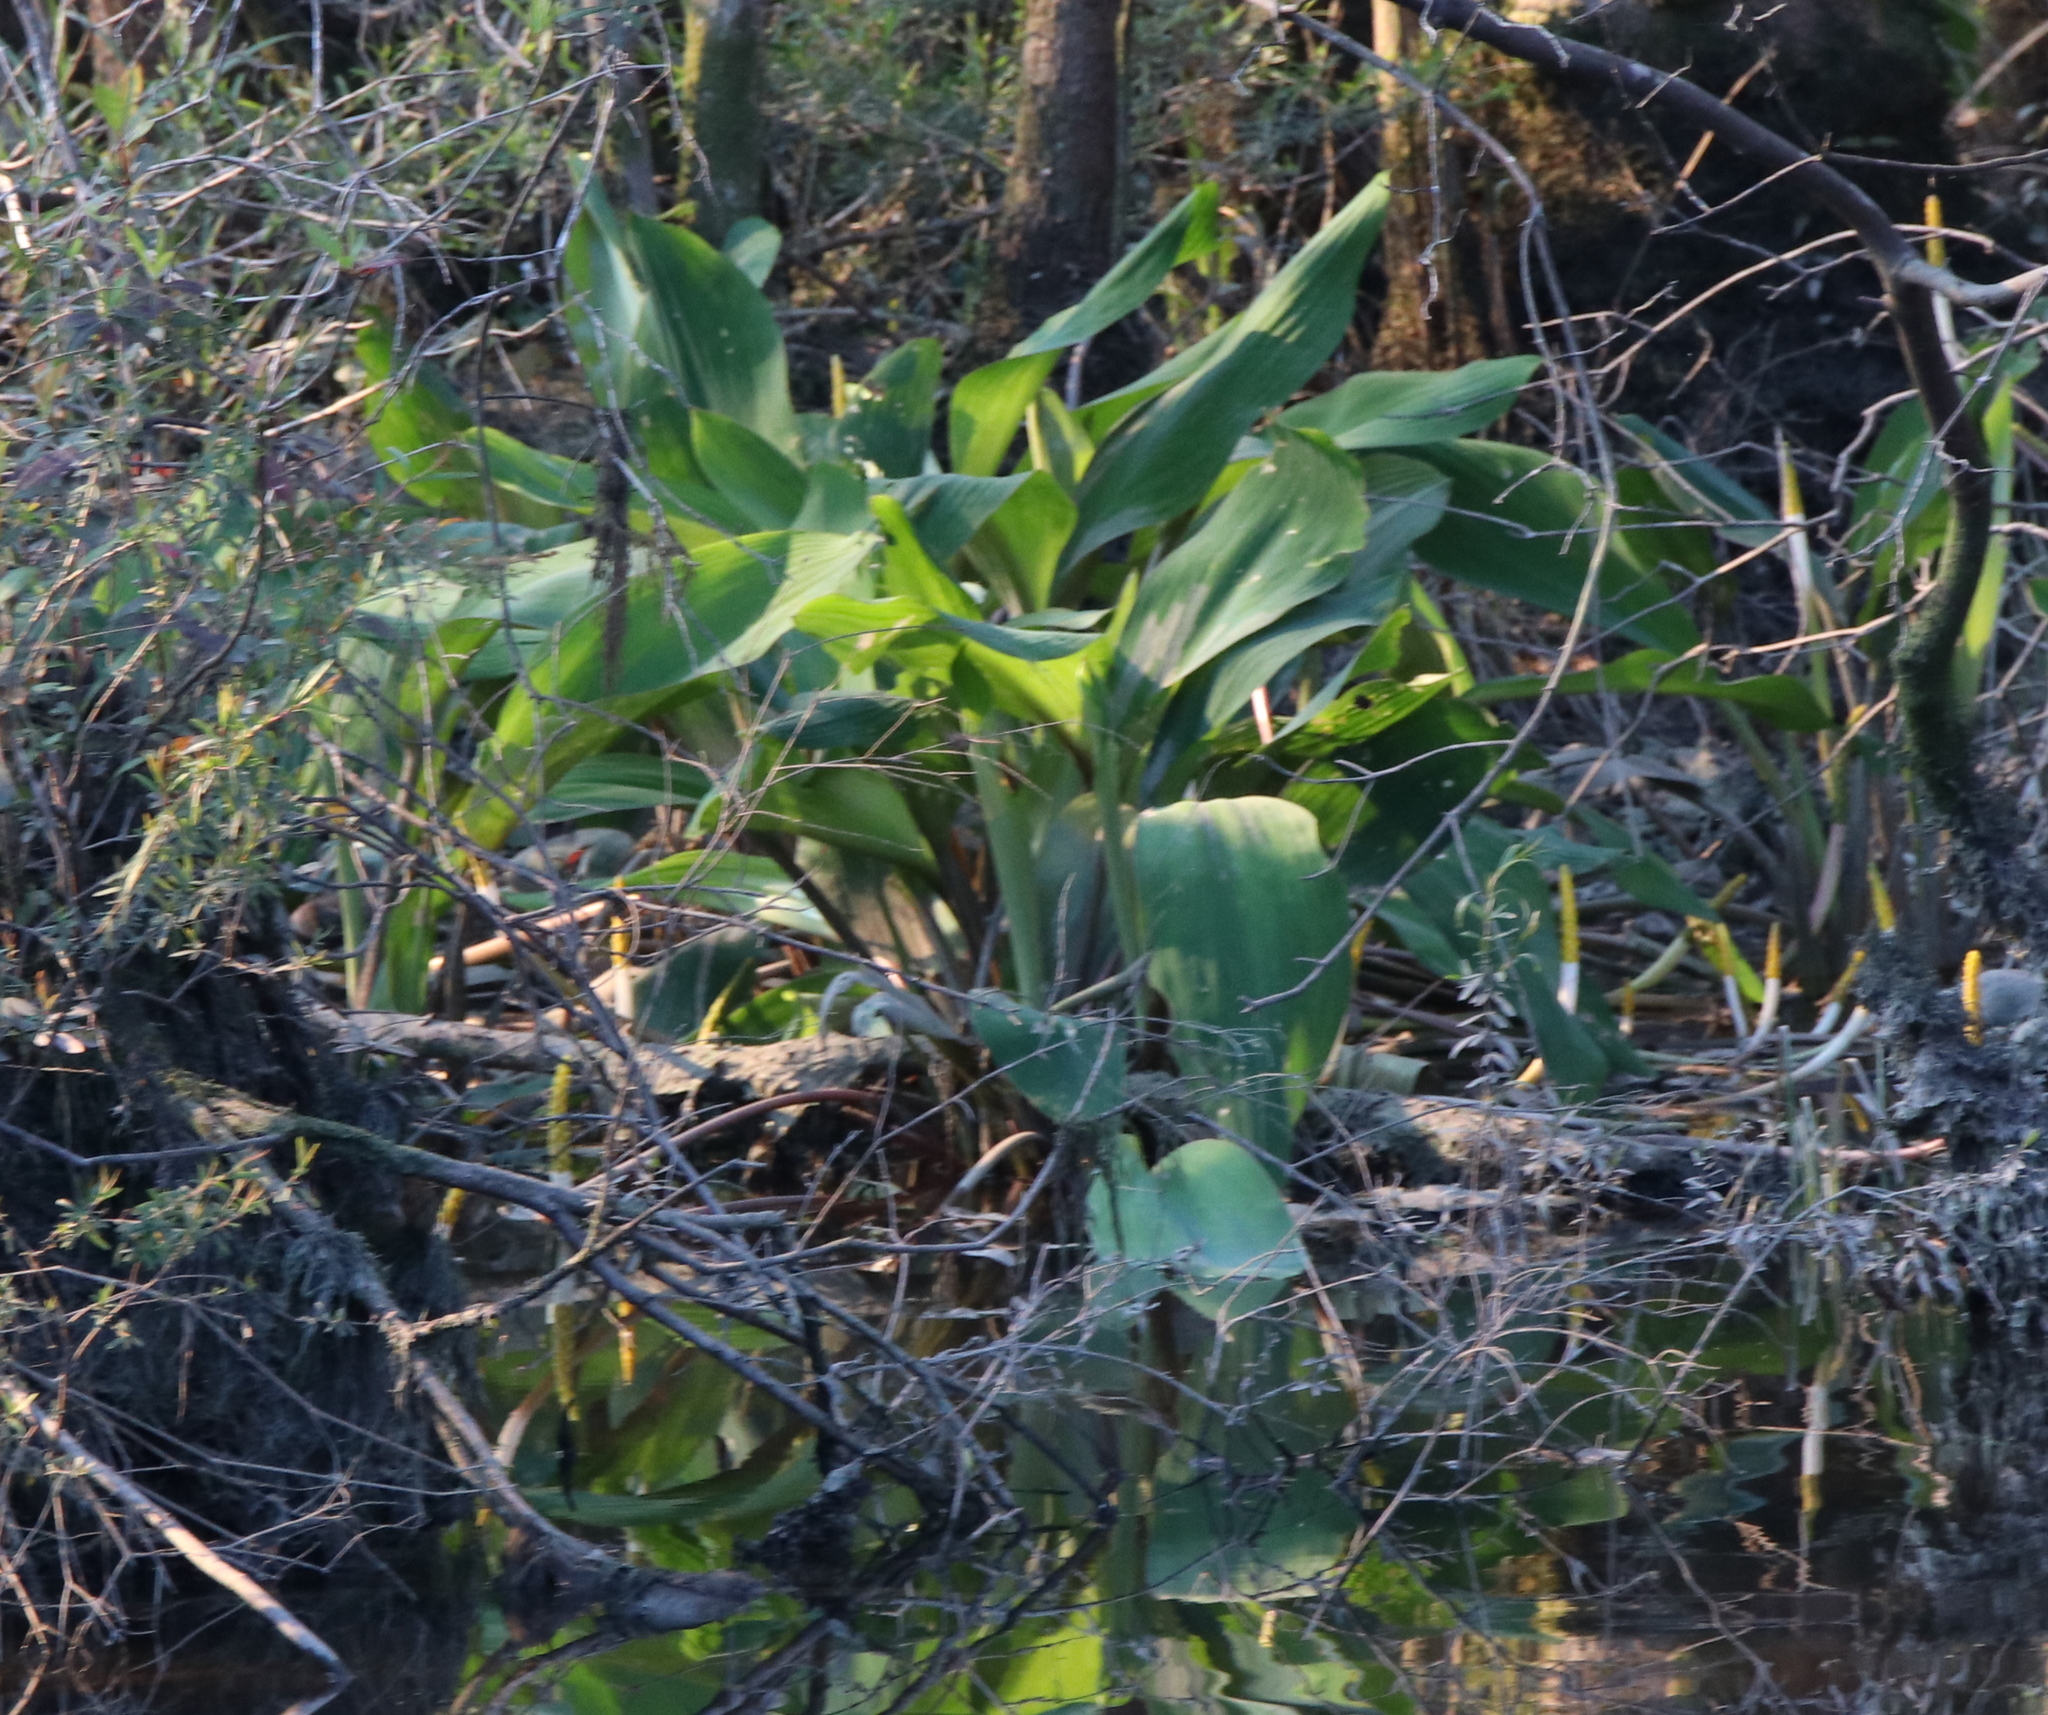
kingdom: Plantae
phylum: Tracheophyta
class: Liliopsida
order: Alismatales
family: Araceae
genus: Orontium
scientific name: Orontium aquaticum
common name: Golden-club
